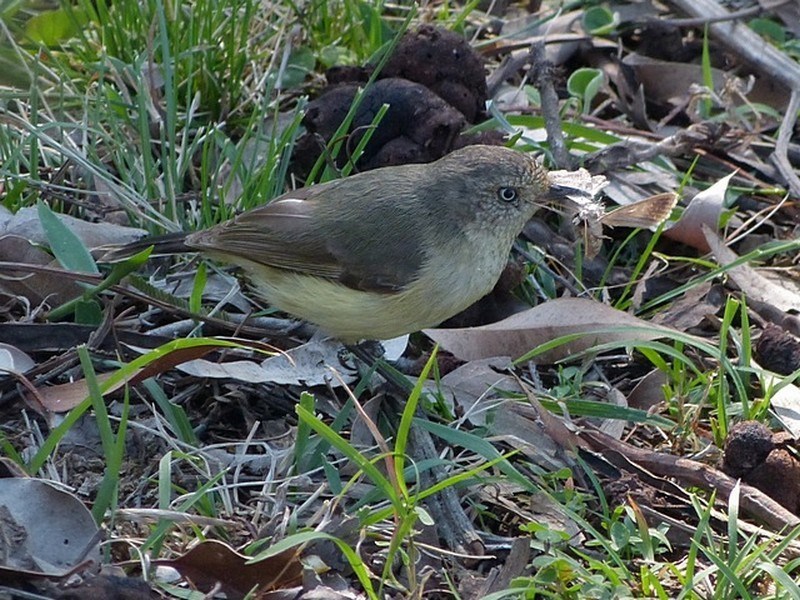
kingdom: Animalia
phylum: Chordata
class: Aves
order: Passeriformes
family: Acanthizidae
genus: Acanthiza
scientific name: Acanthiza reguloides
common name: Buff-rumped thornbill
